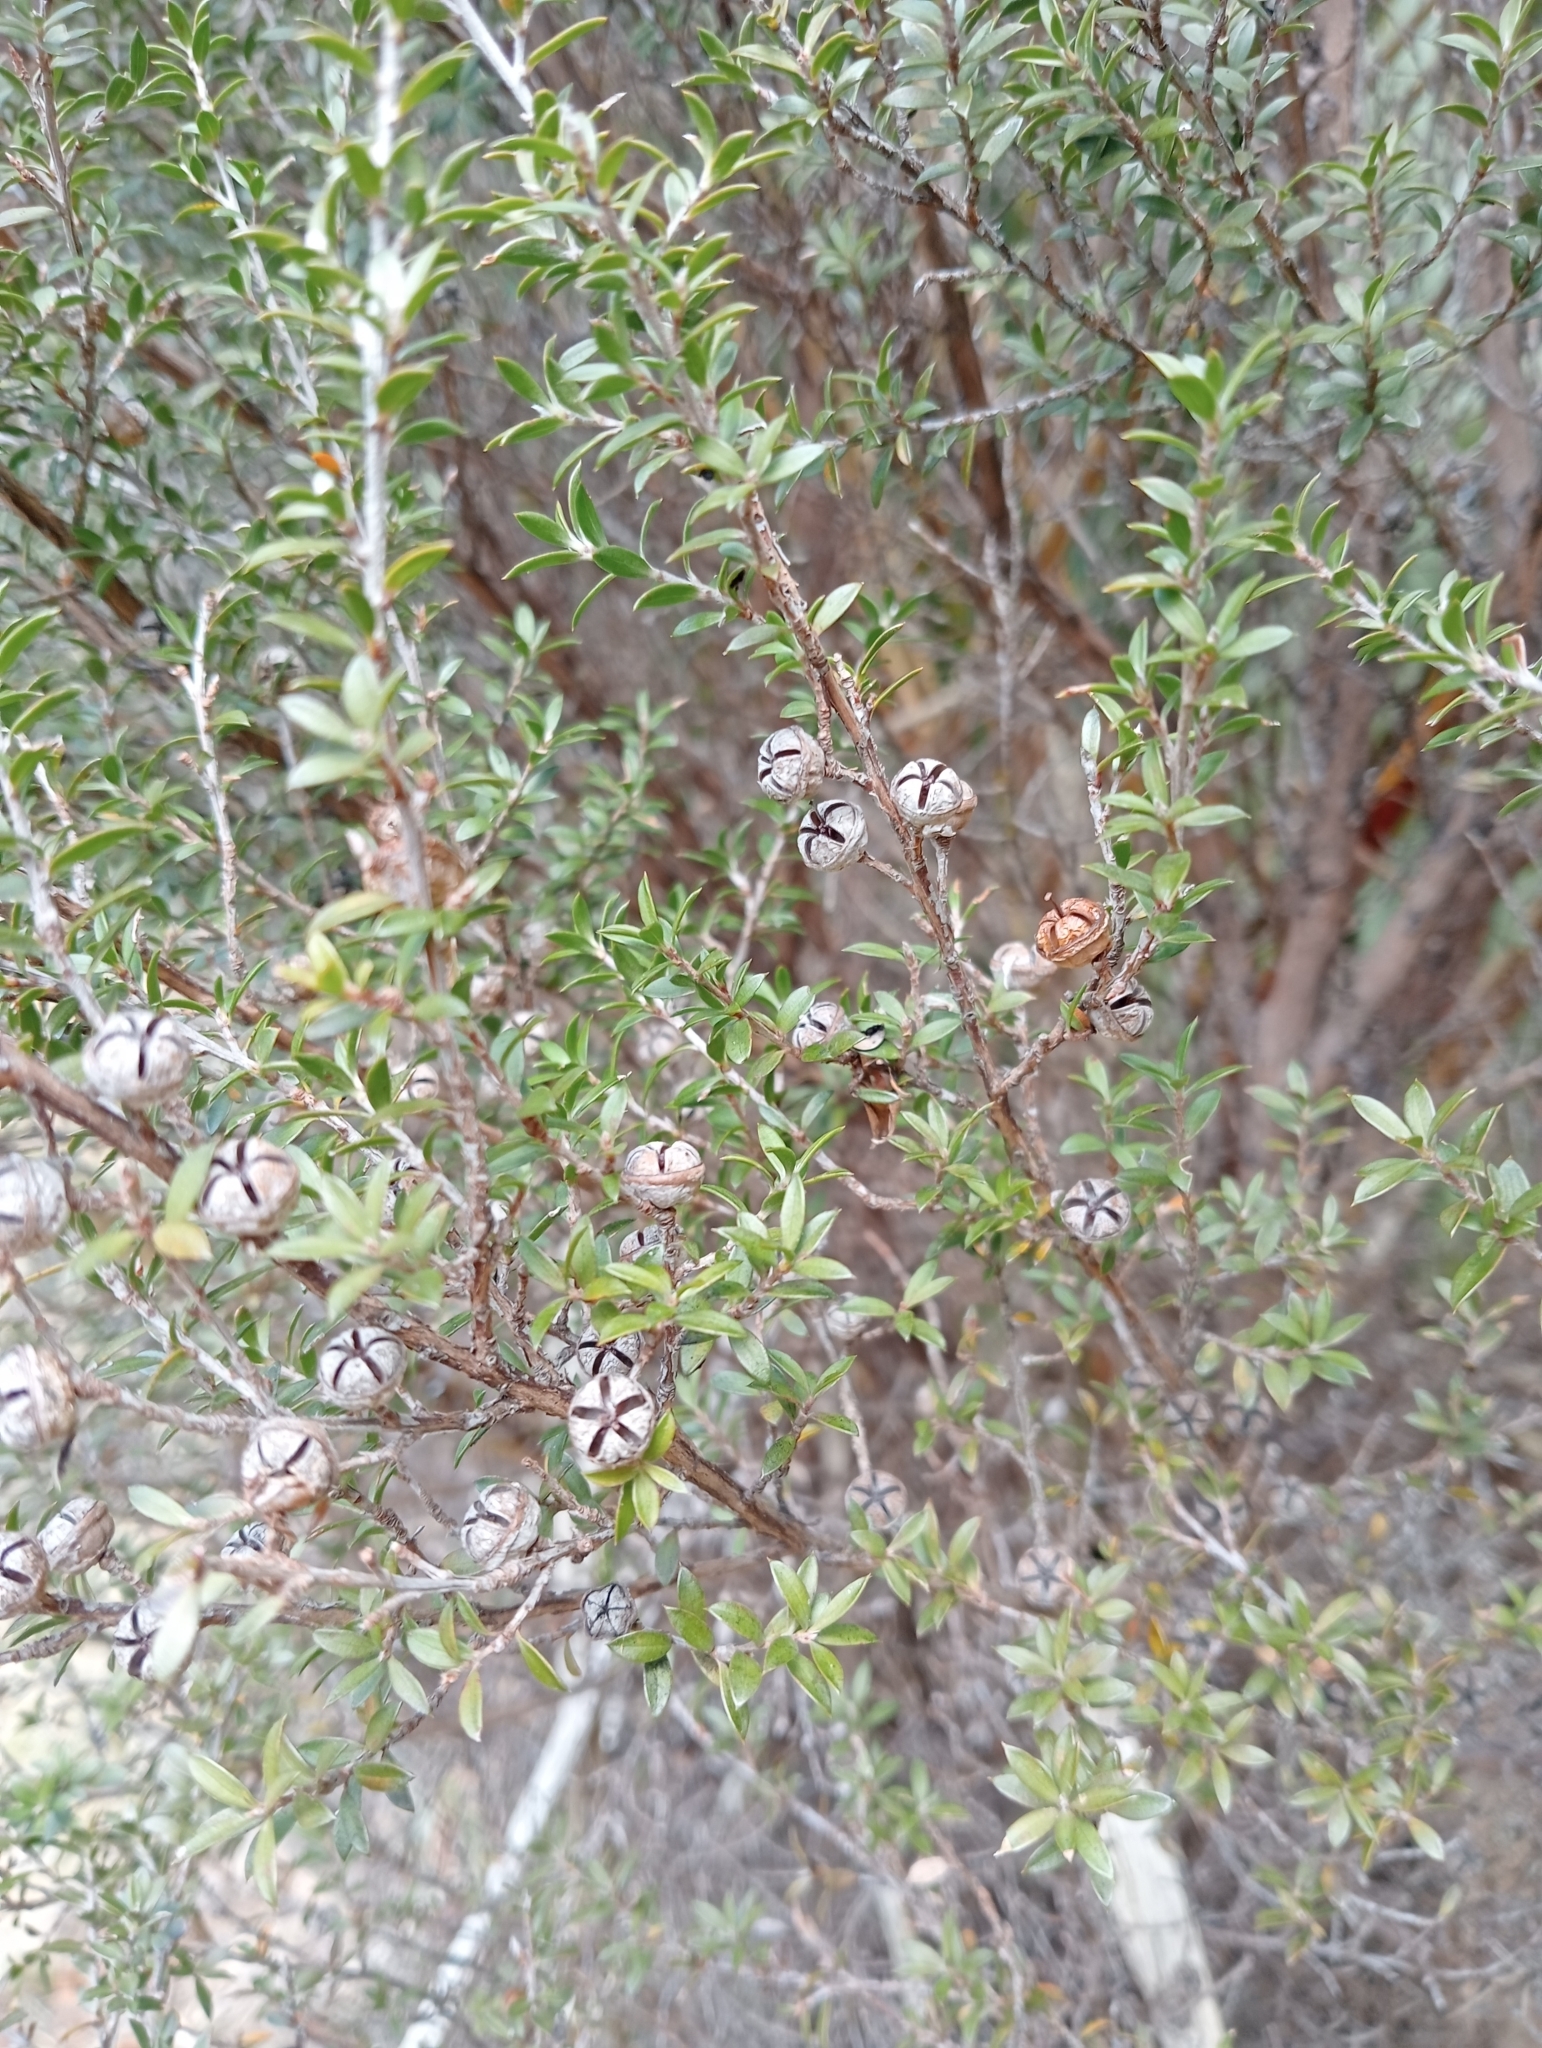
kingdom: Plantae
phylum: Tracheophyta
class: Magnoliopsida
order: Myrtales
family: Myrtaceae
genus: Leptospermum
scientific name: Leptospermum scoparium
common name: Broom tea-tree
